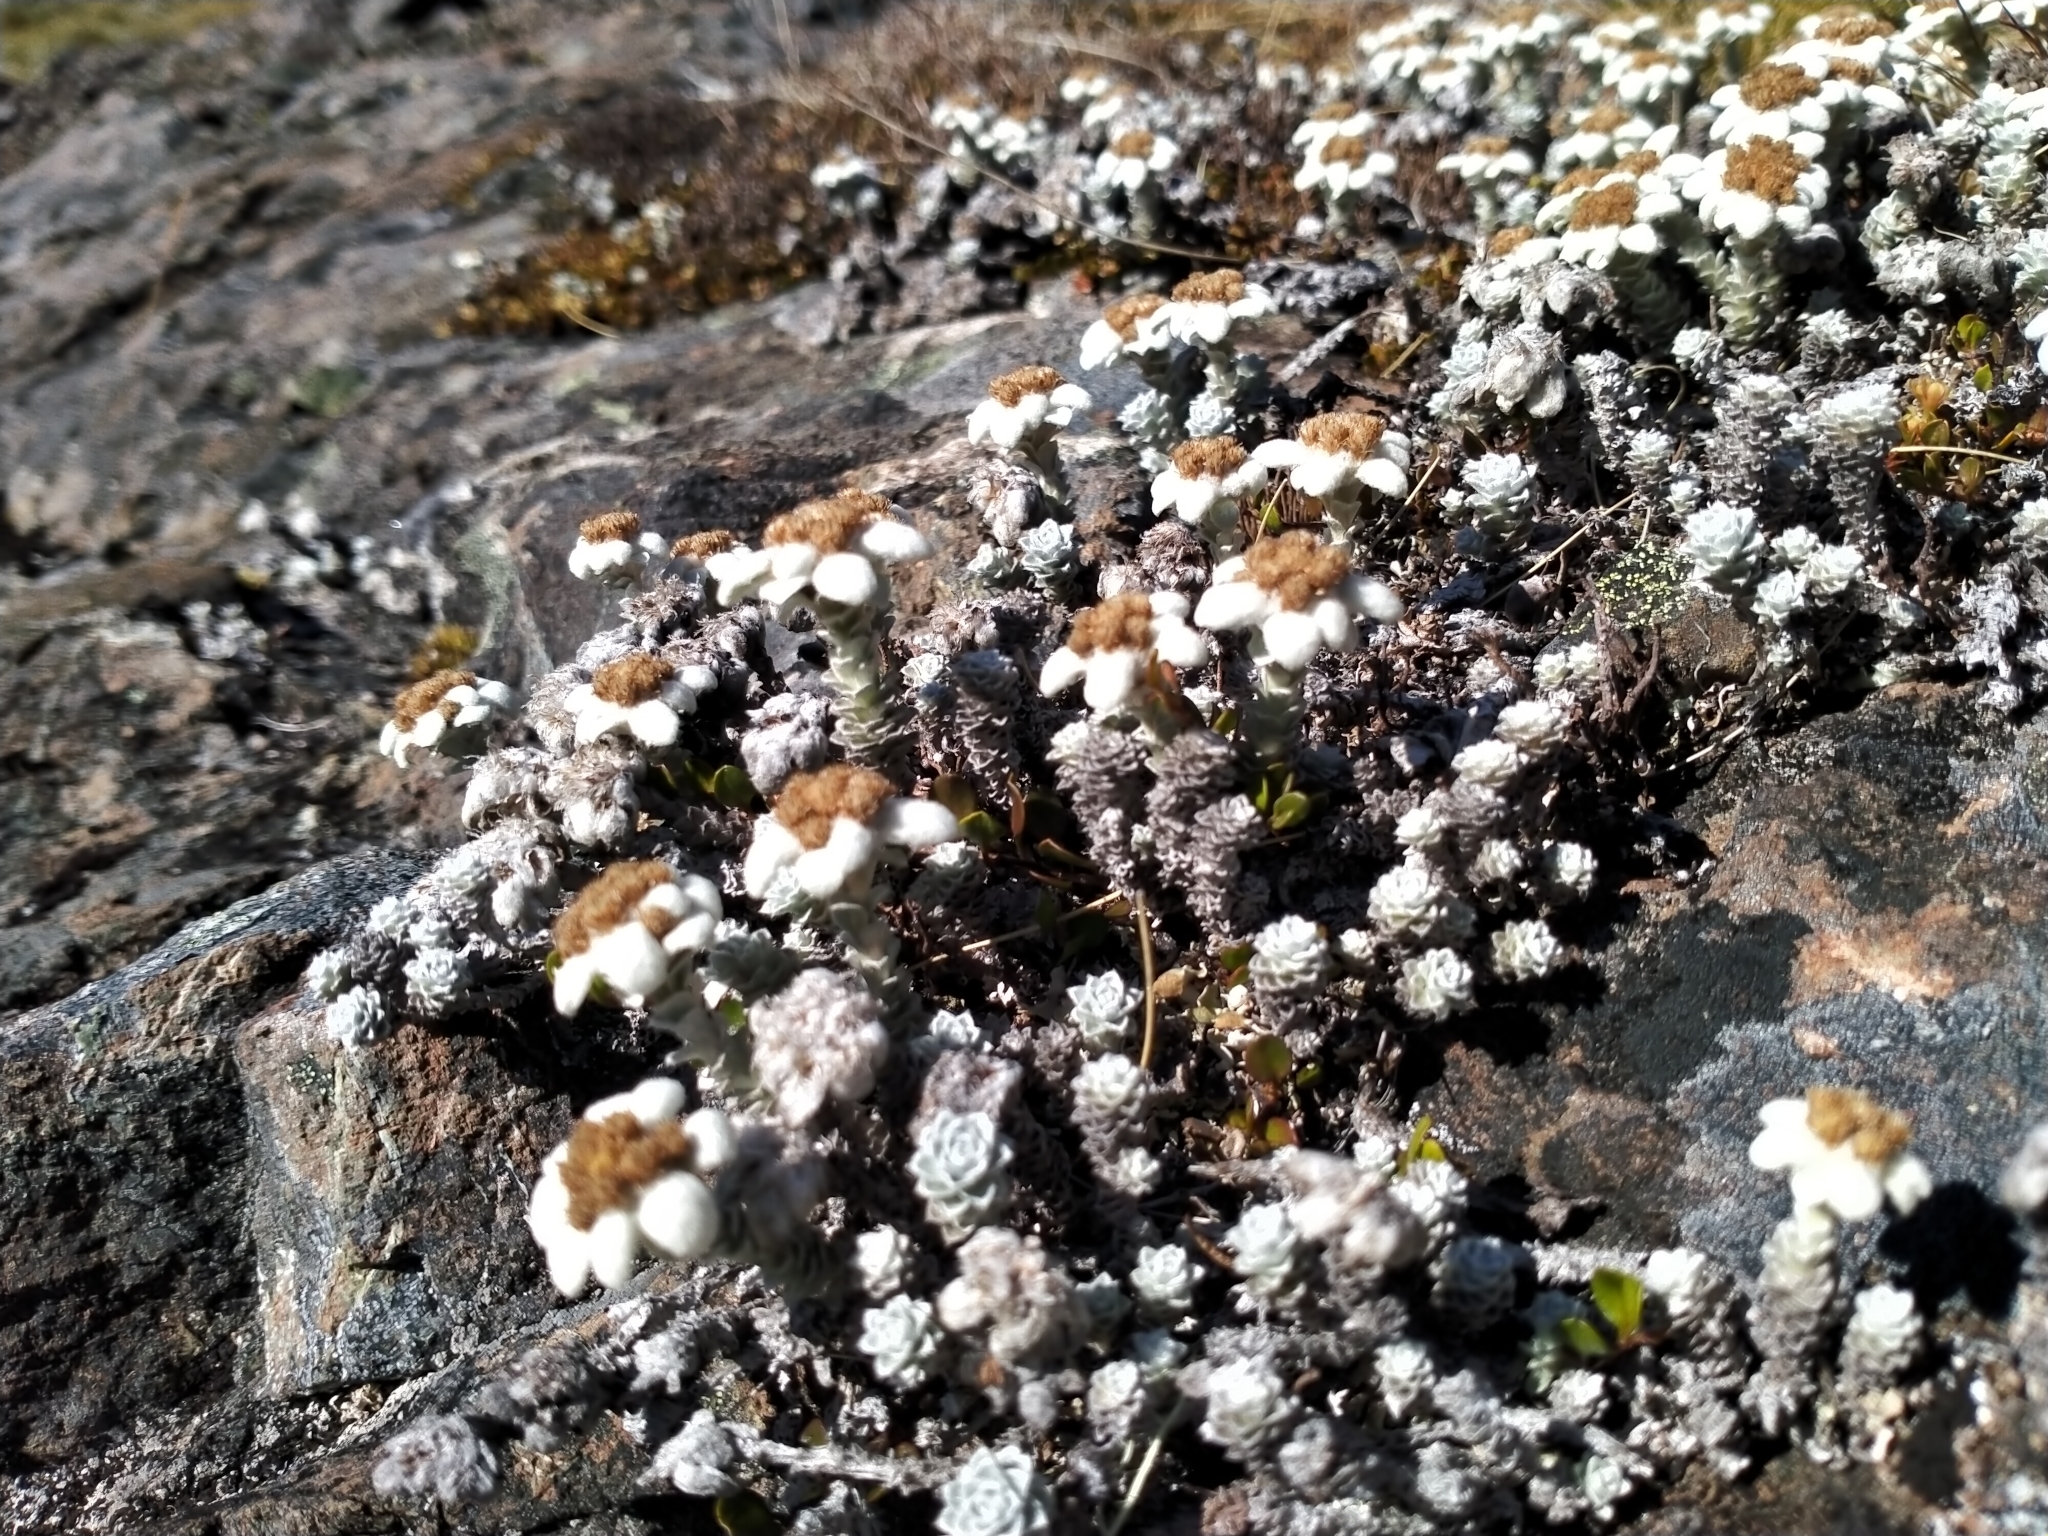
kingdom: Plantae
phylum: Tracheophyta
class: Magnoliopsida
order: Asterales
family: Asteraceae
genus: Leucogenes
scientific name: Leucogenes grandiceps
